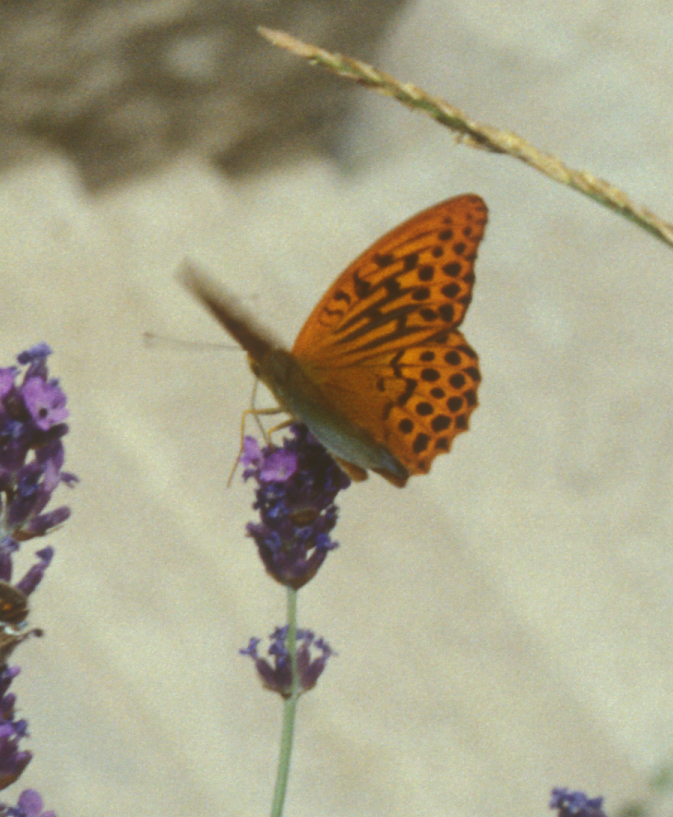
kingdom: Animalia
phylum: Arthropoda
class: Insecta
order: Lepidoptera
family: Nymphalidae
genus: Argynnis
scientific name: Argynnis paphia
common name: Silver-washed fritillary
